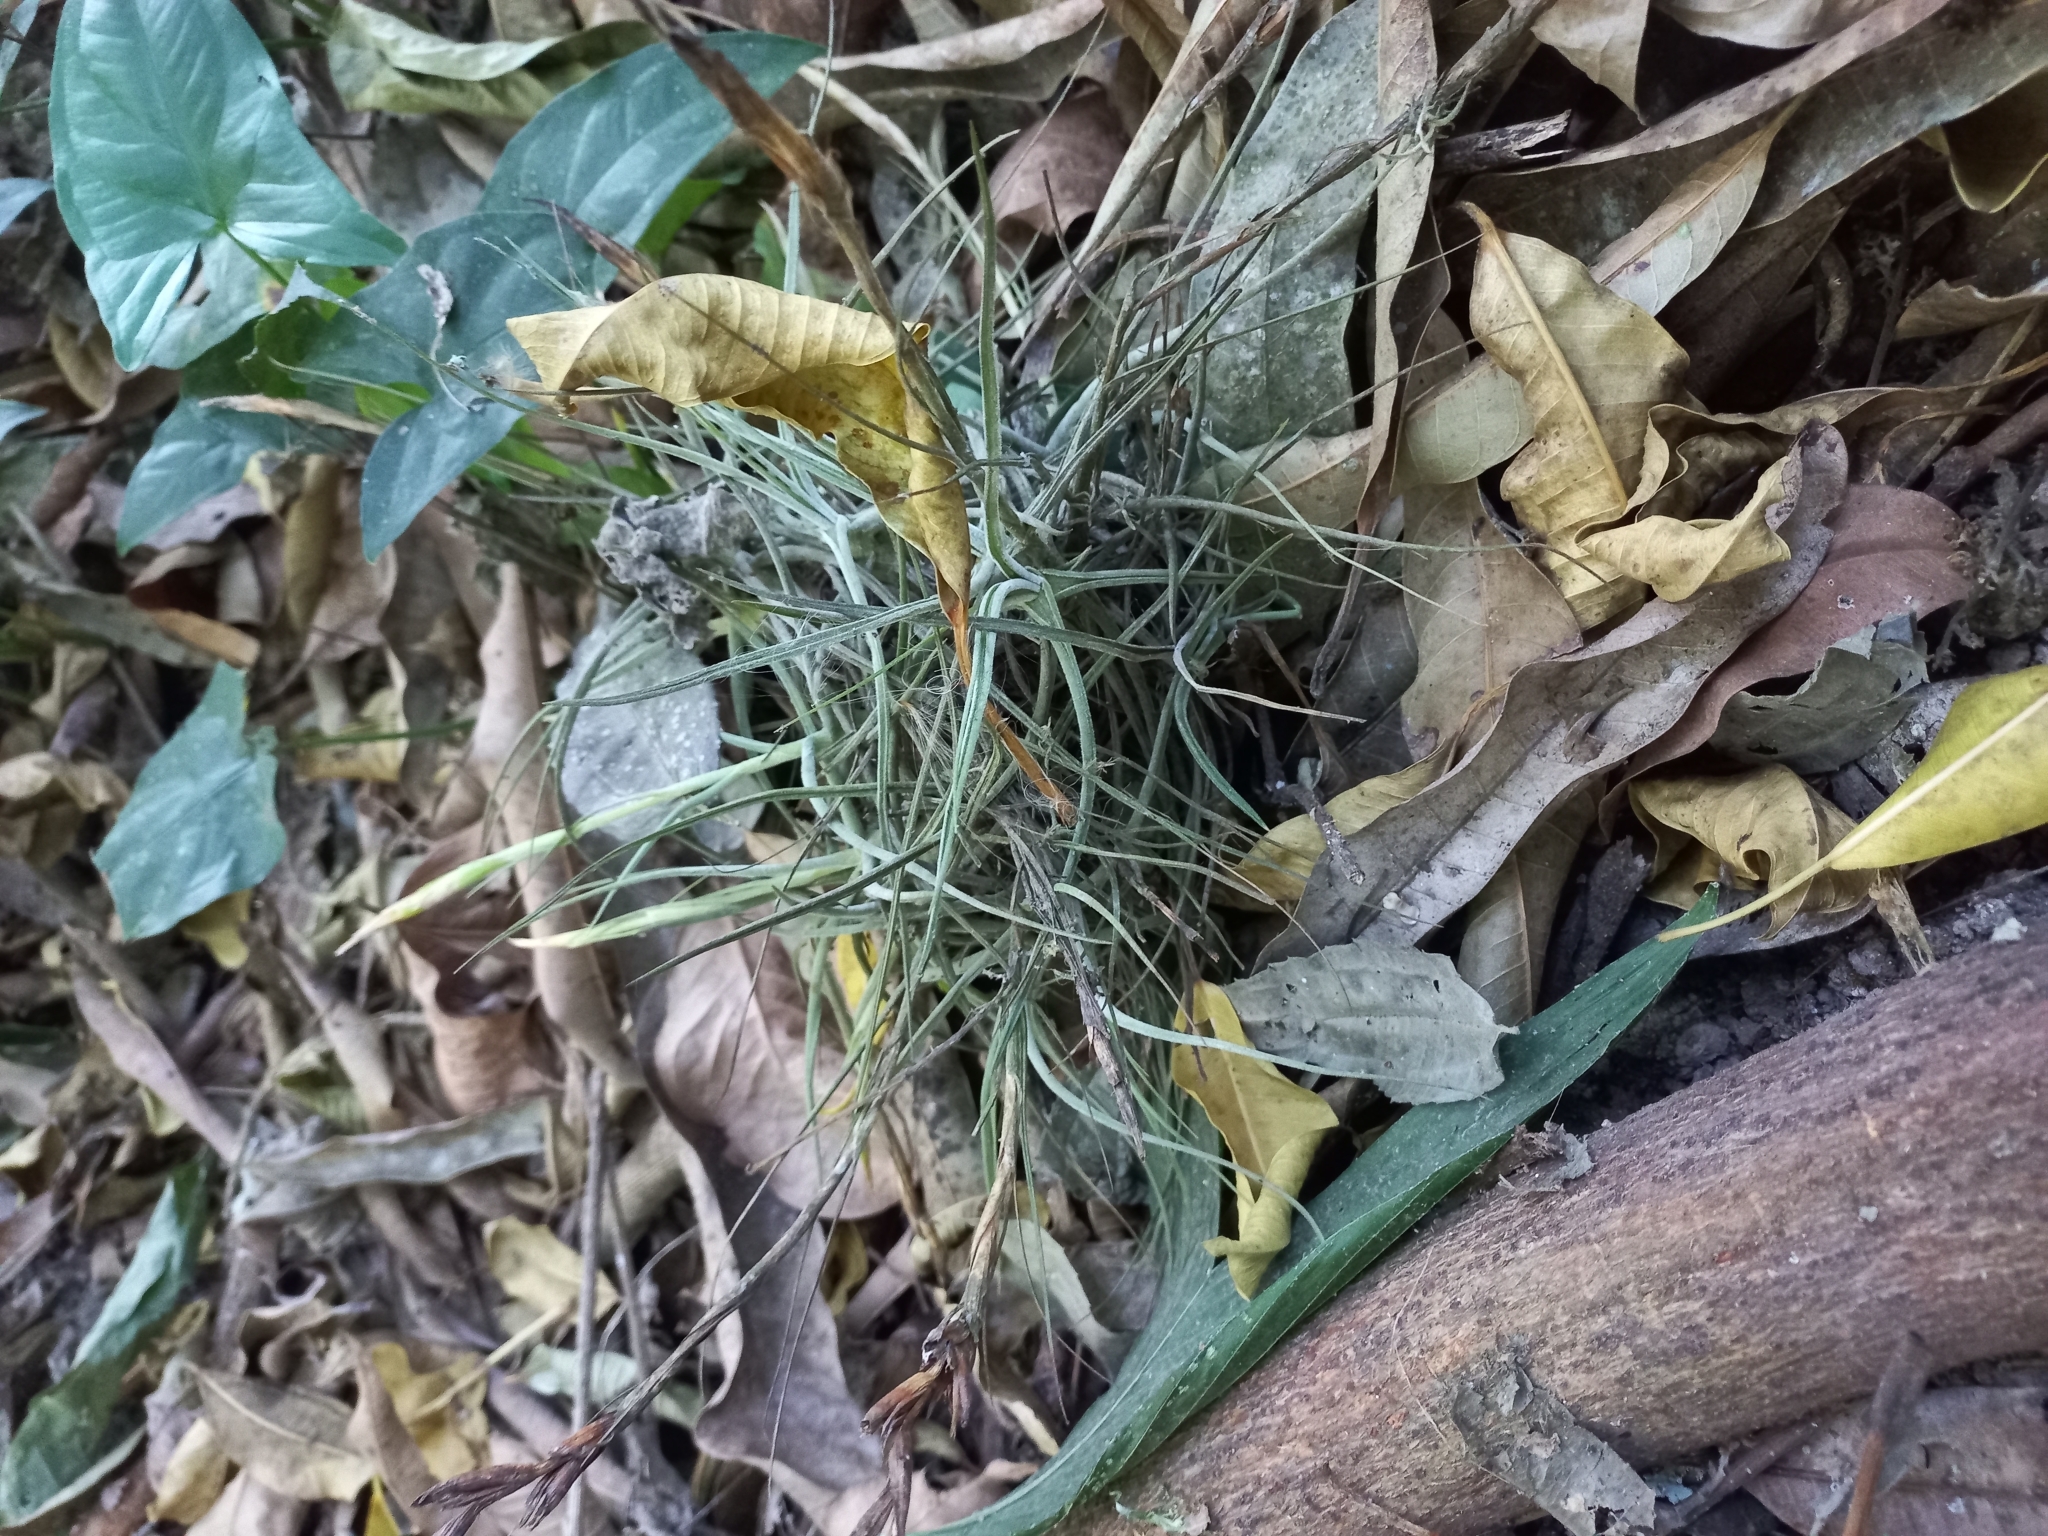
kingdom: Plantae
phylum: Tracheophyta
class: Liliopsida
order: Poales
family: Bromeliaceae
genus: Tillandsia
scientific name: Tillandsia schiedeana
